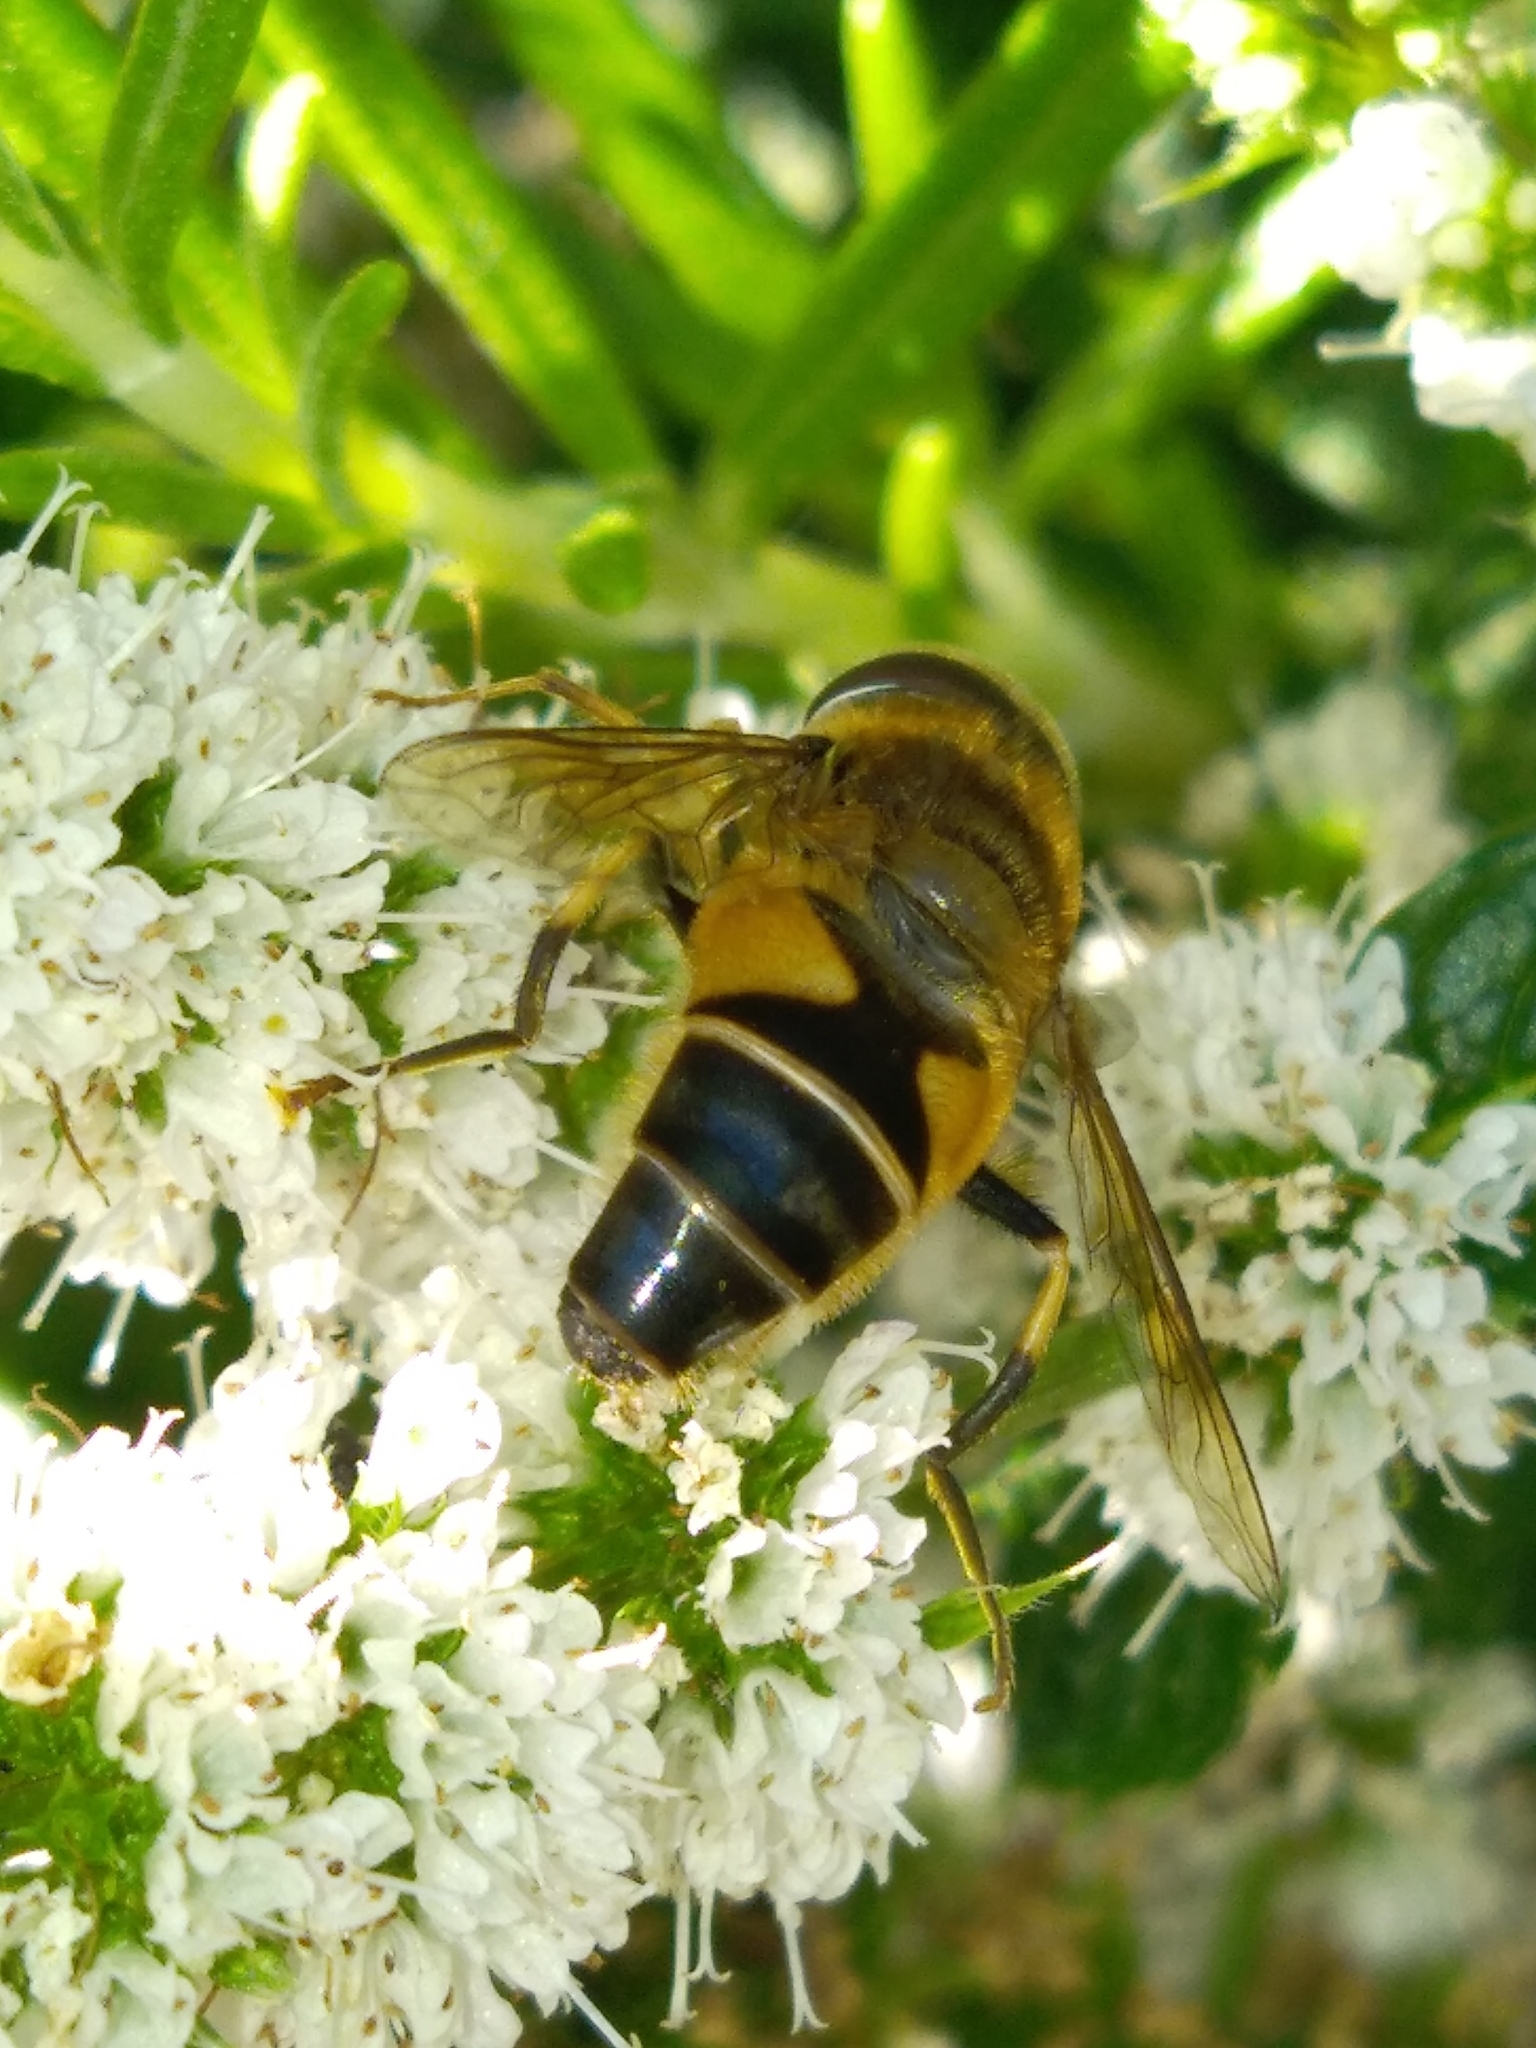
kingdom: Animalia
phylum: Arthropoda
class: Insecta
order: Diptera
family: Syrphidae
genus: Eristalis
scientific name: Eristalis pertinax
